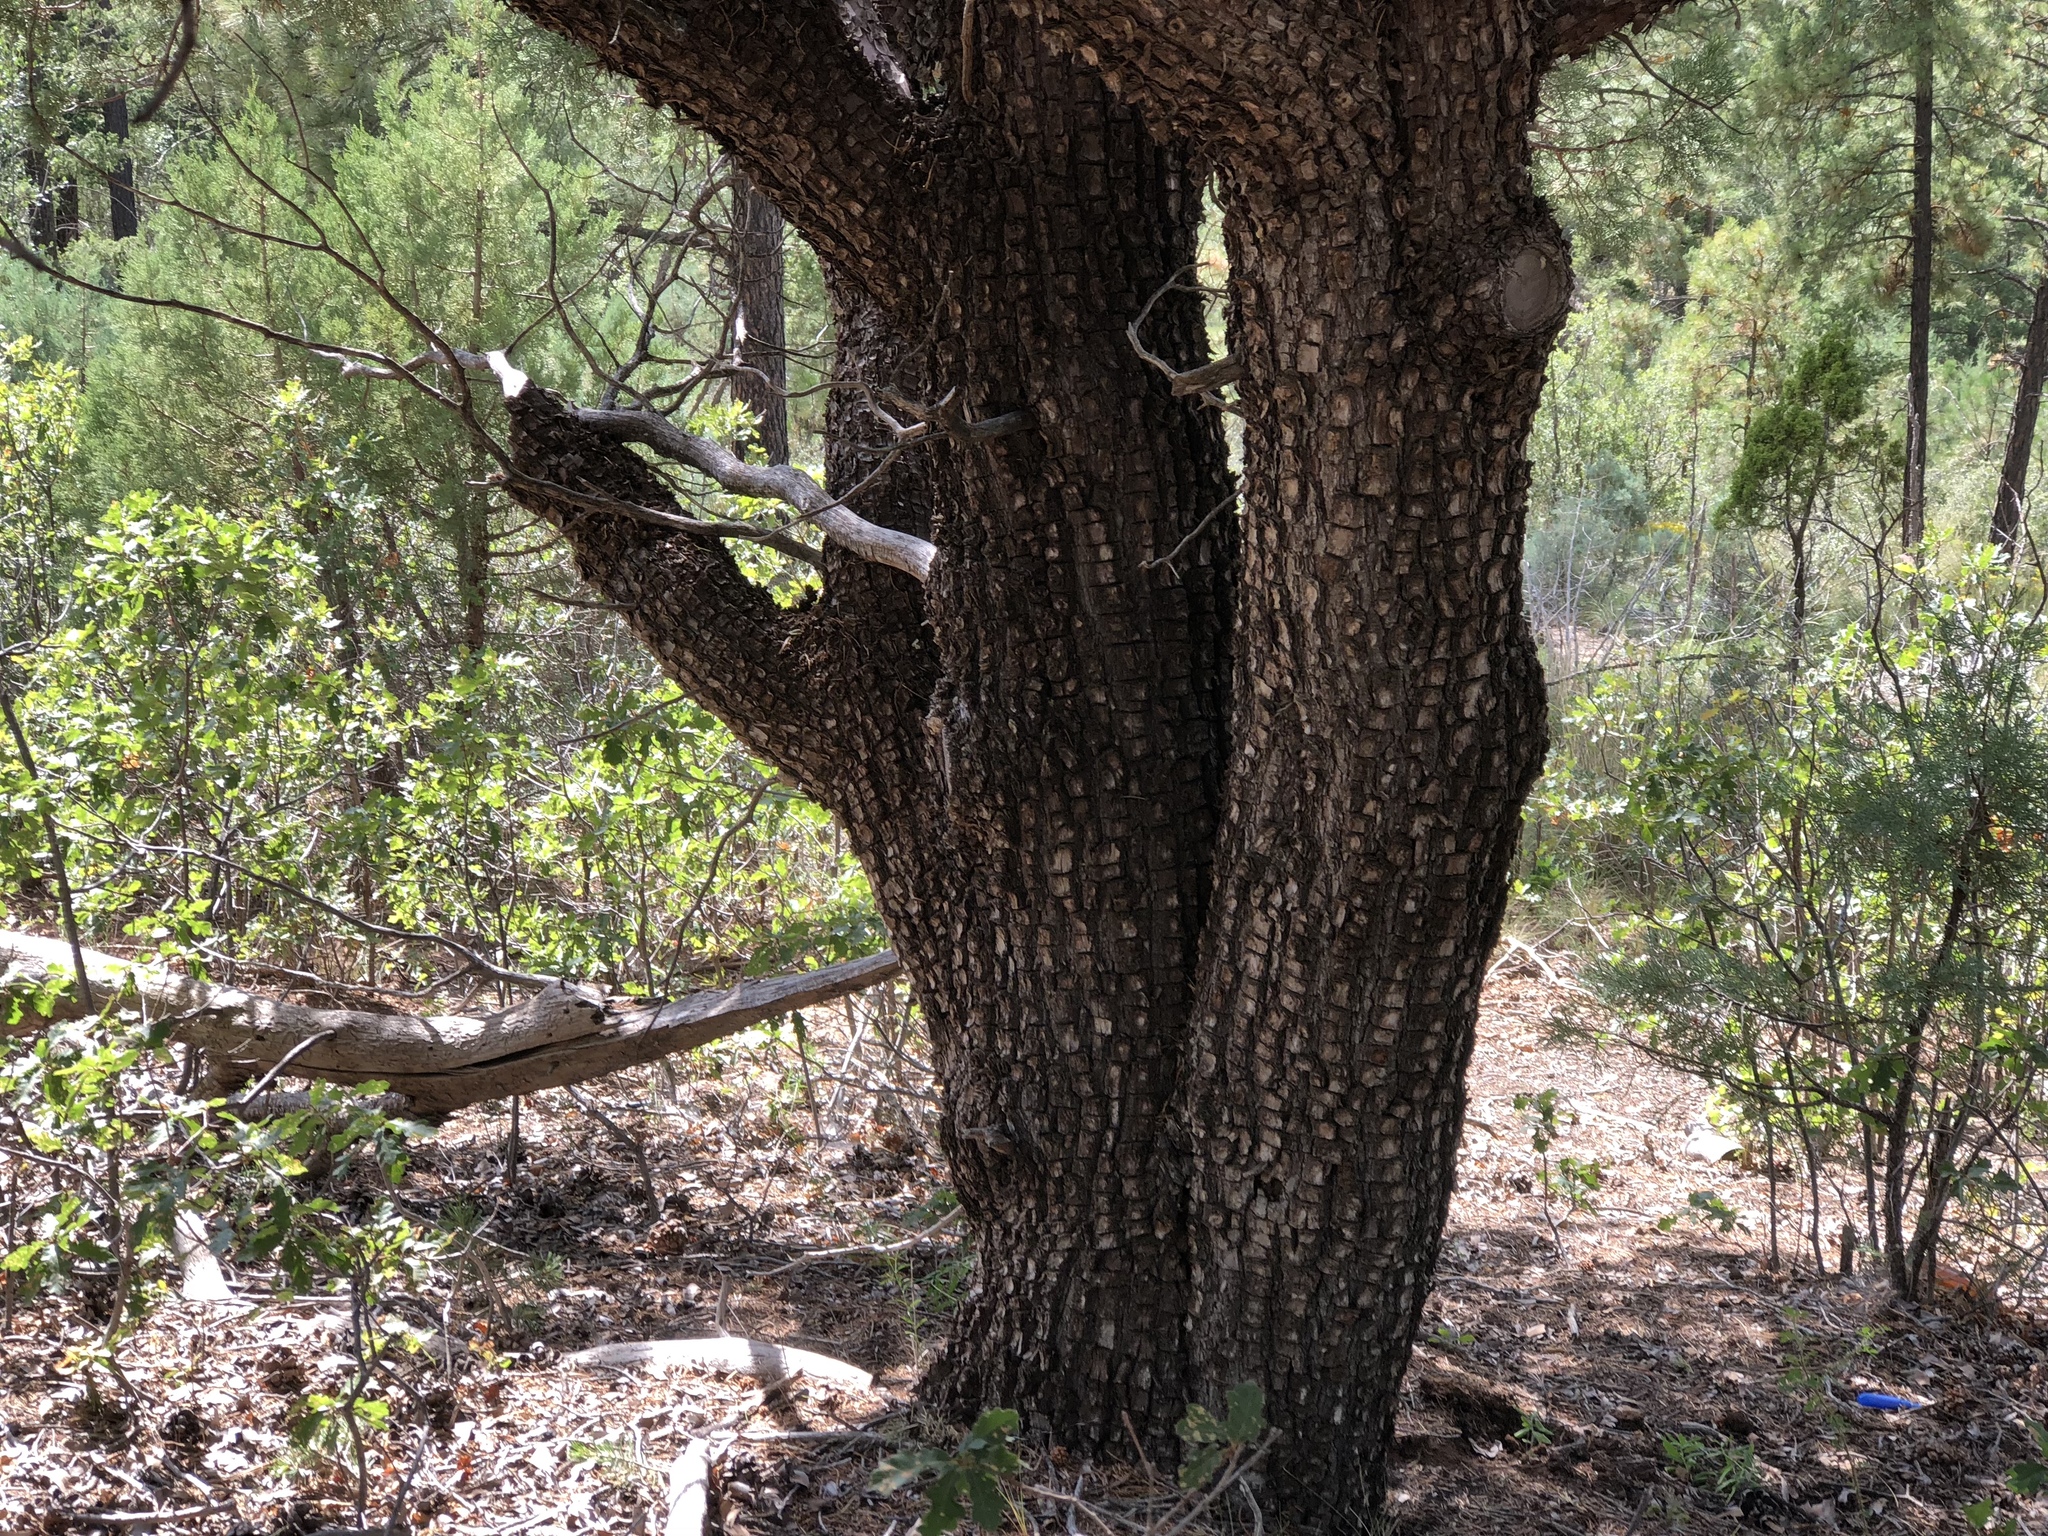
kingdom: Plantae
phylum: Tracheophyta
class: Pinopsida
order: Pinales
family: Cupressaceae
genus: Juniperus
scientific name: Juniperus deppeana
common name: Alligator juniper
